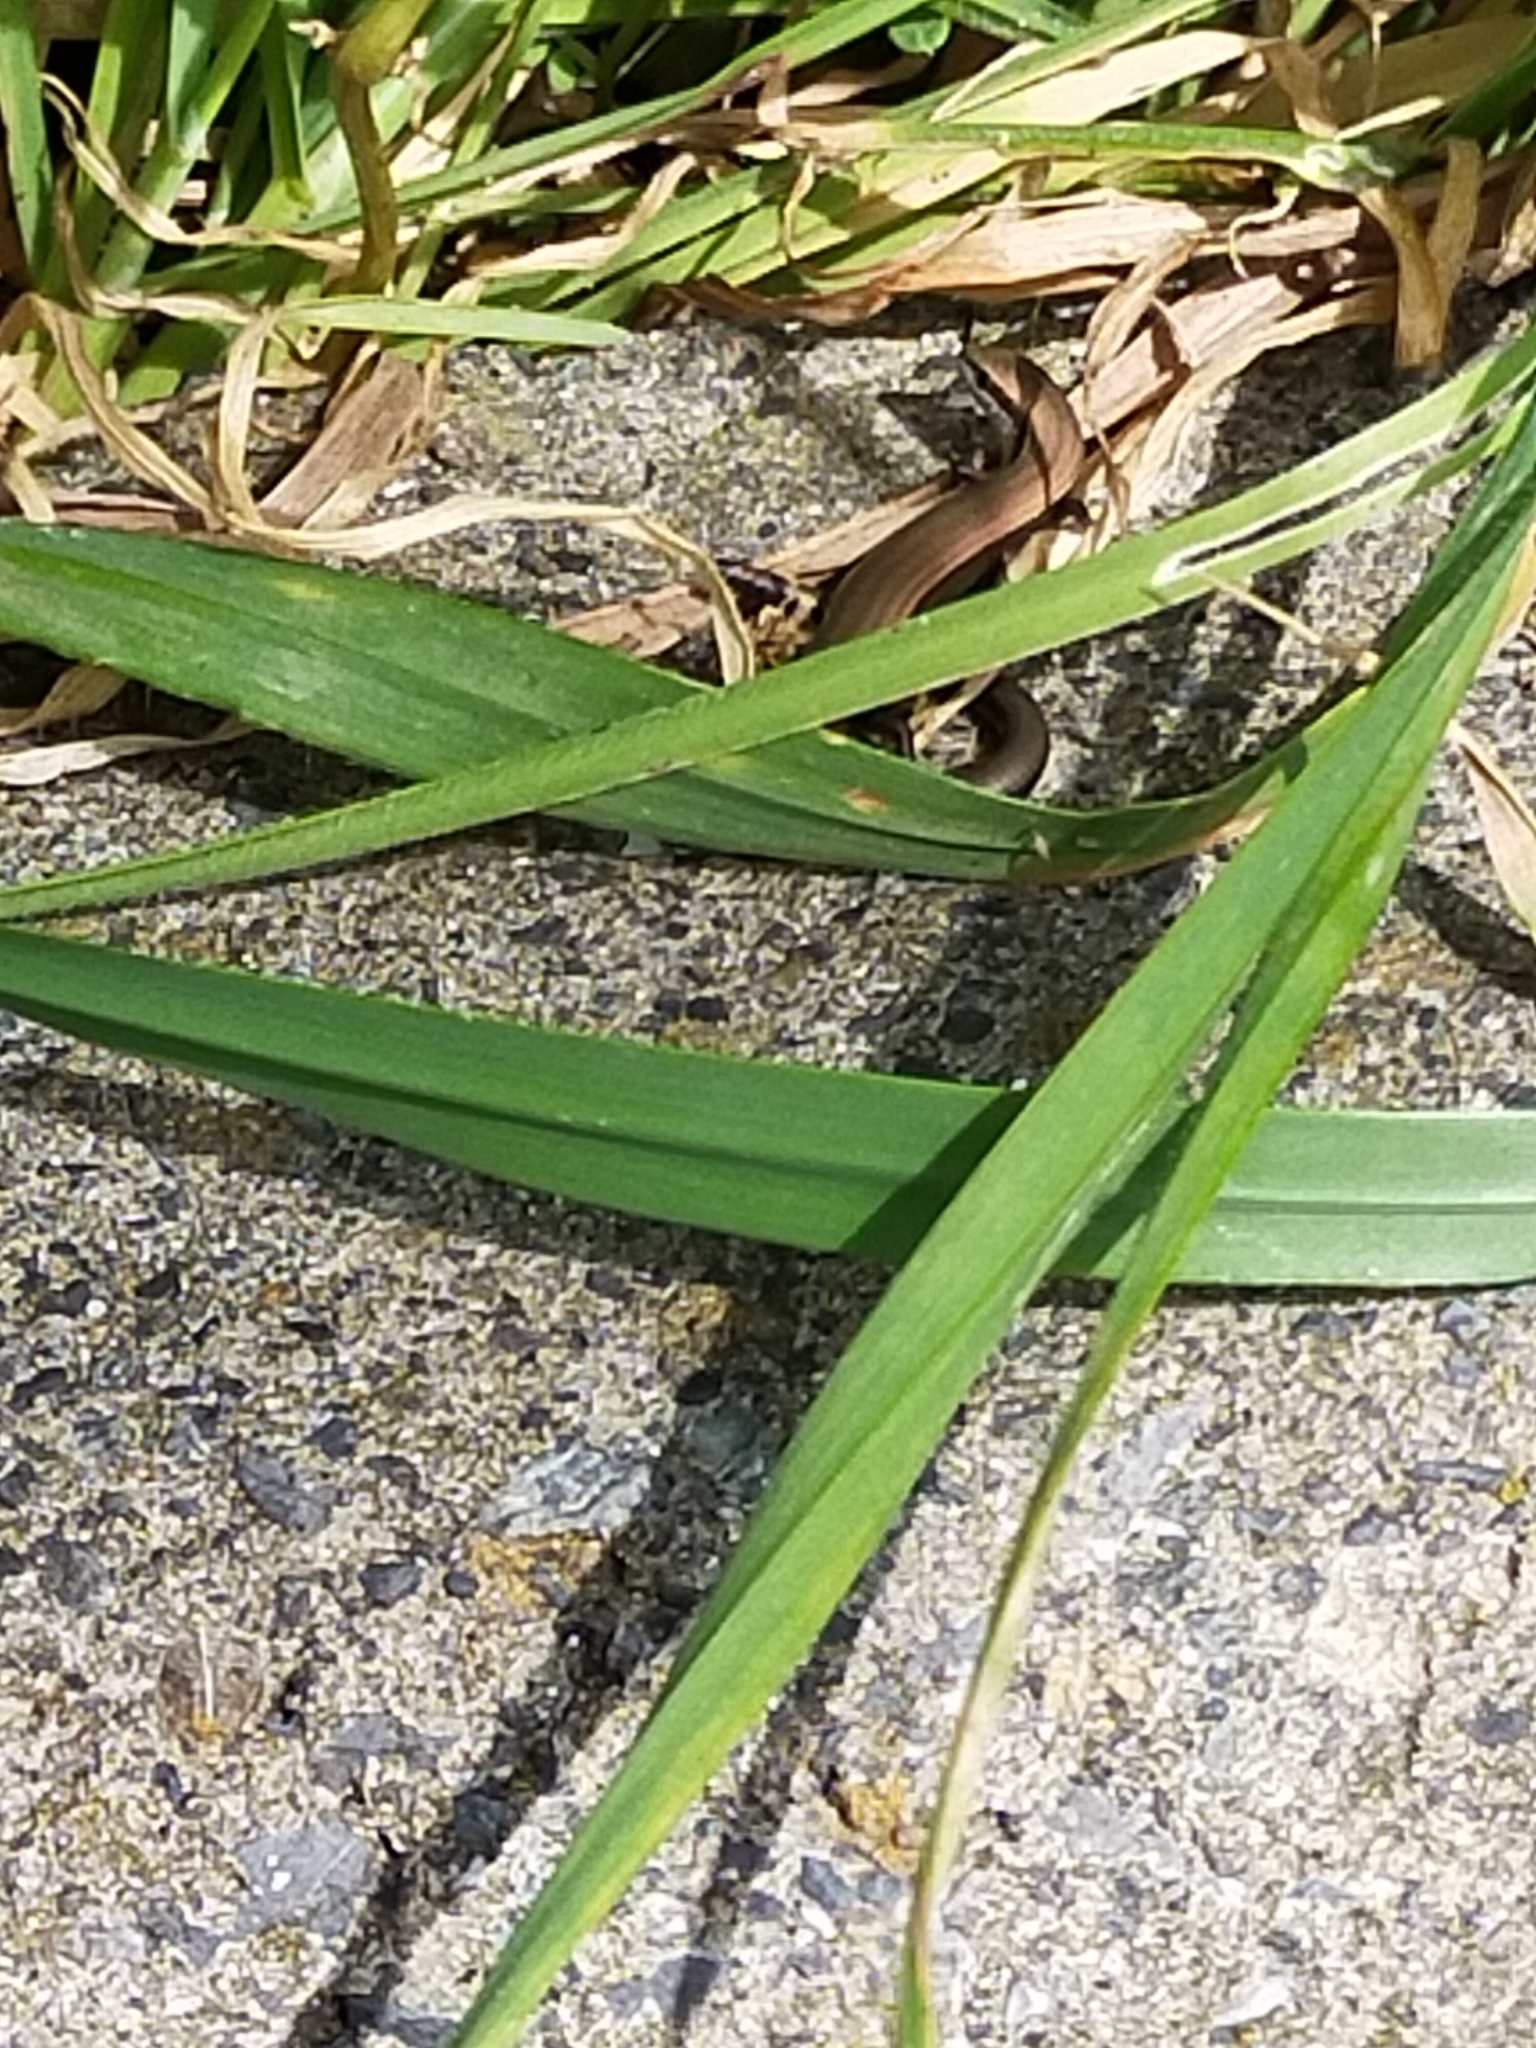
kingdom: Animalia
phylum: Chordata
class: Squamata
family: Scincidae
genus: Ablepharus
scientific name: Ablepharus kitaibelii
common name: Juniper skink
